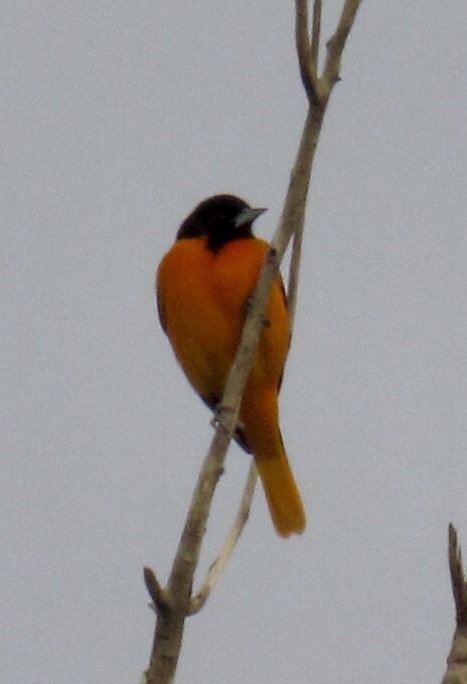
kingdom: Animalia
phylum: Chordata
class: Aves
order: Passeriformes
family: Icteridae
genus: Icterus
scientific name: Icterus galbula
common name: Baltimore oriole
